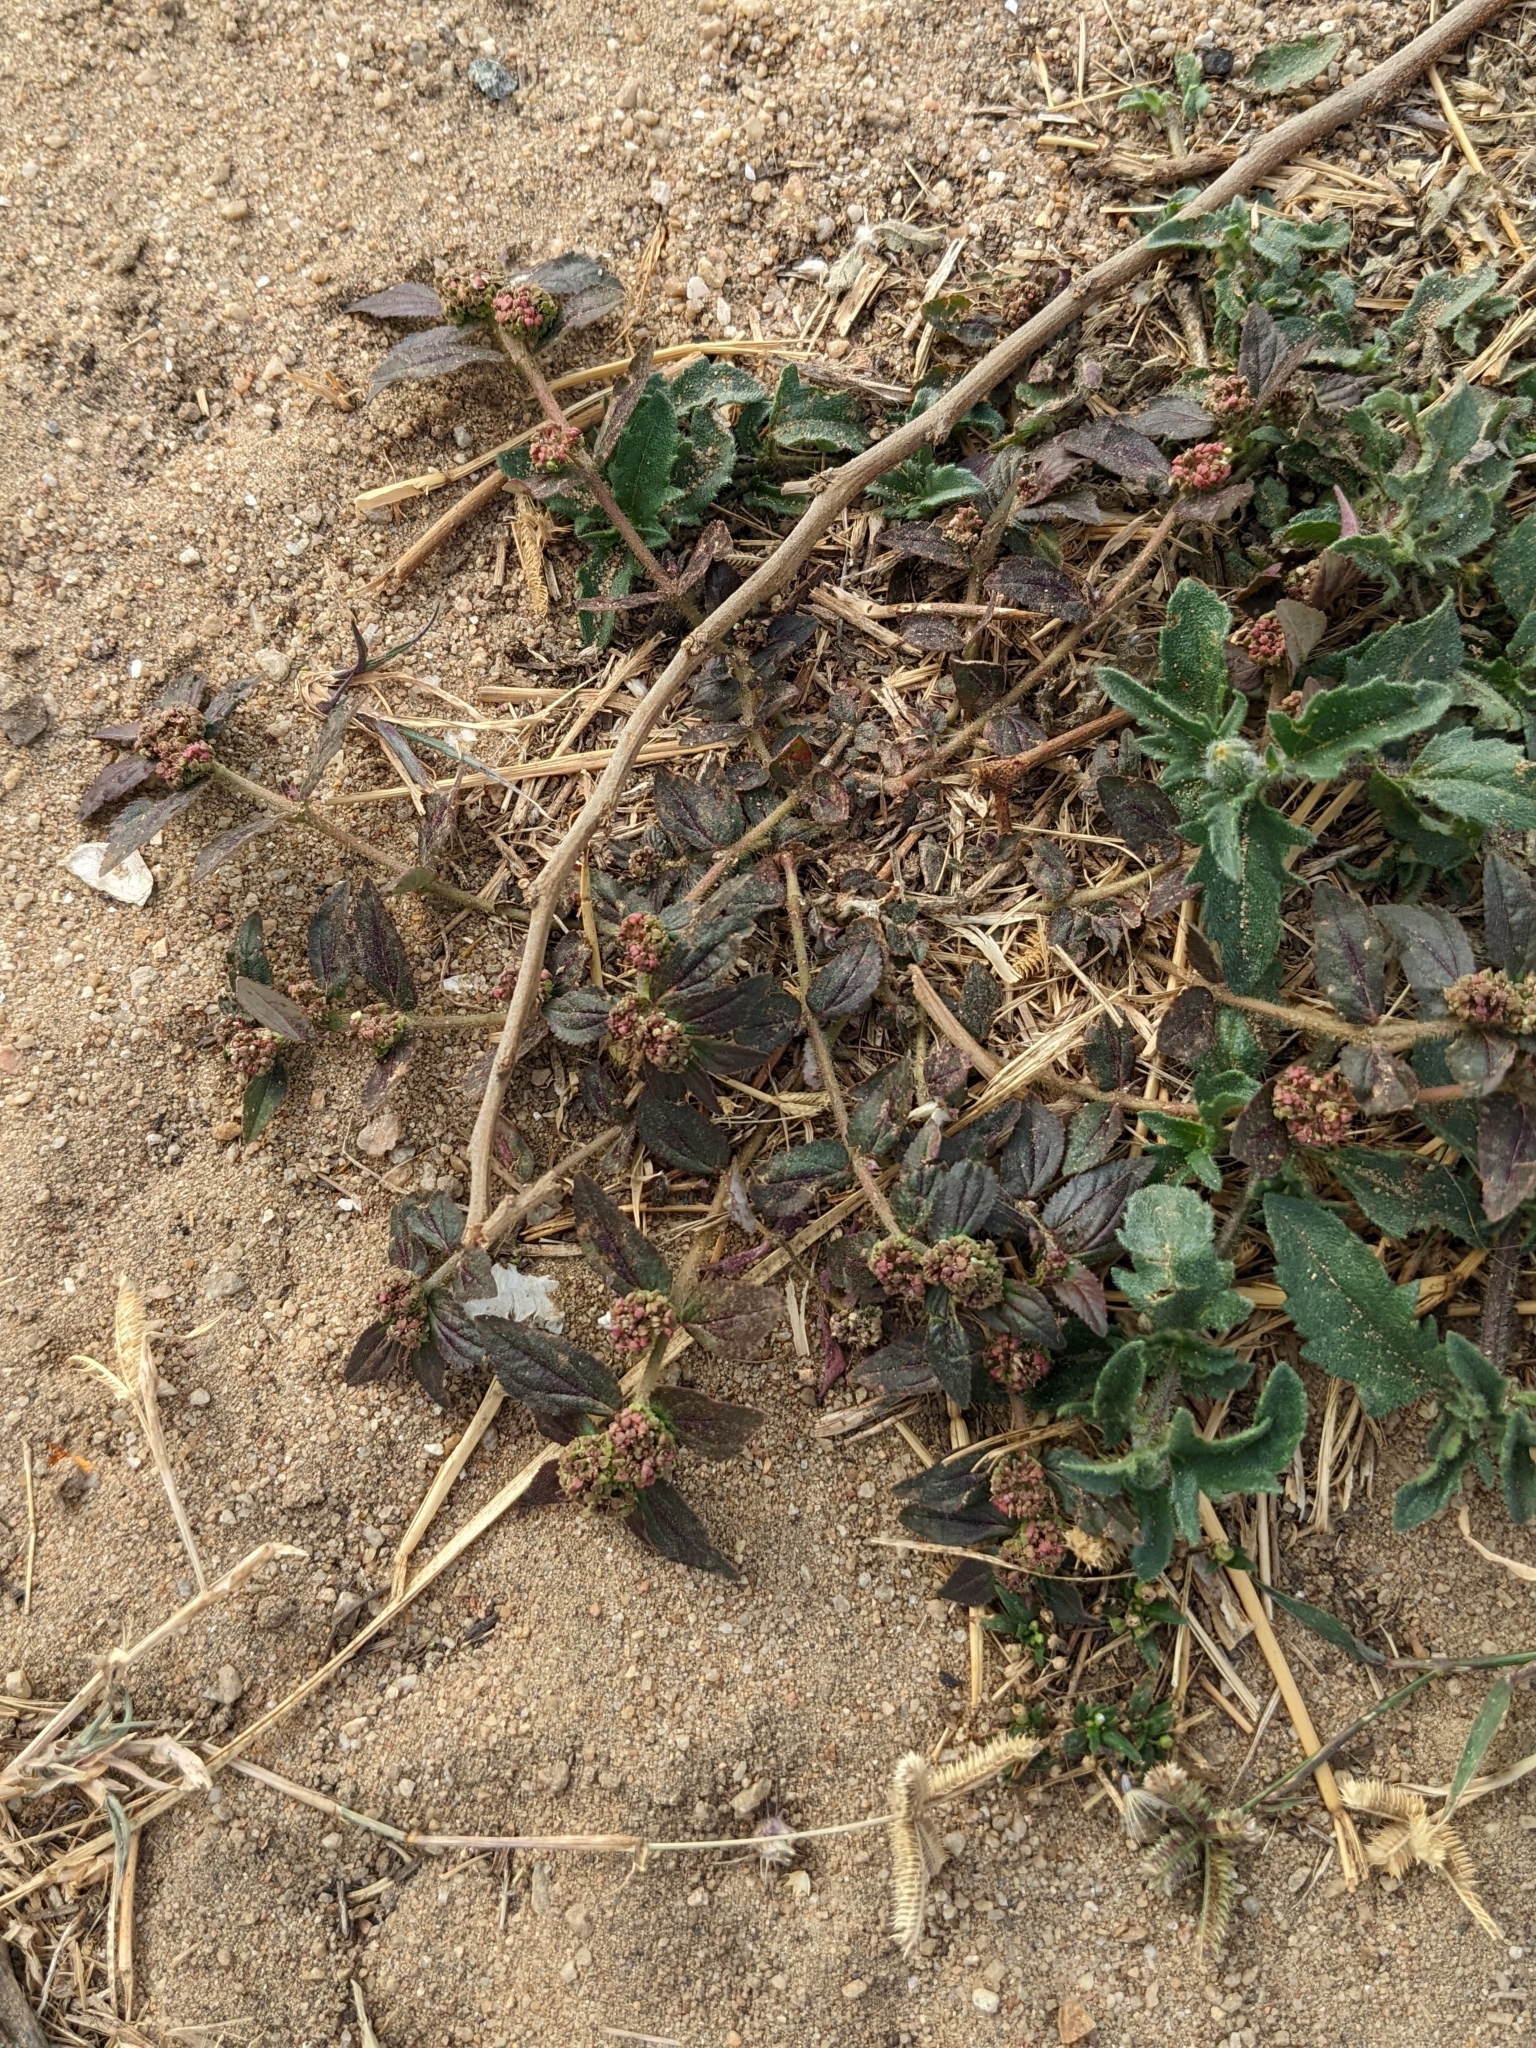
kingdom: Plantae
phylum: Tracheophyta
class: Magnoliopsida
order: Malpighiales
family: Euphorbiaceae
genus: Euphorbia
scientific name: Euphorbia hirta
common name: Pillpod sandmat
